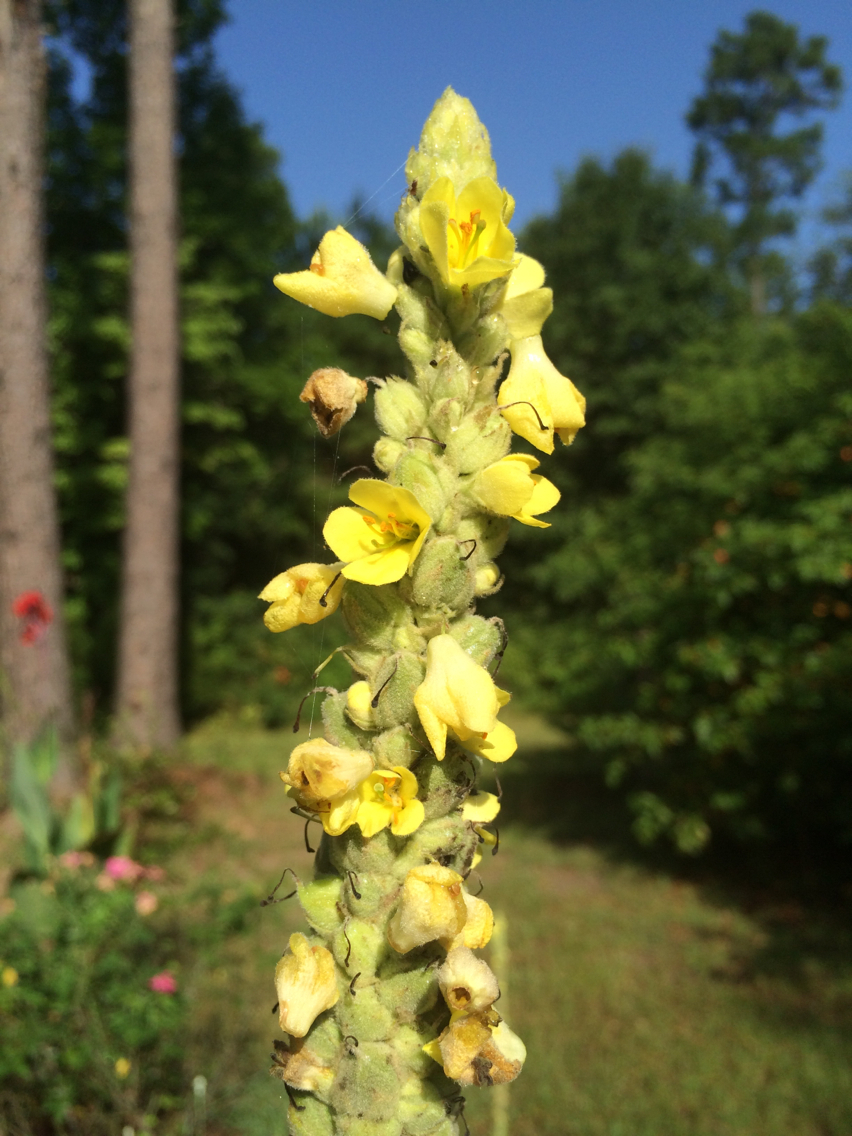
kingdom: Plantae
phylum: Tracheophyta
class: Magnoliopsida
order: Lamiales
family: Scrophulariaceae
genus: Verbascum
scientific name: Verbascum thapsus
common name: Common mullein
